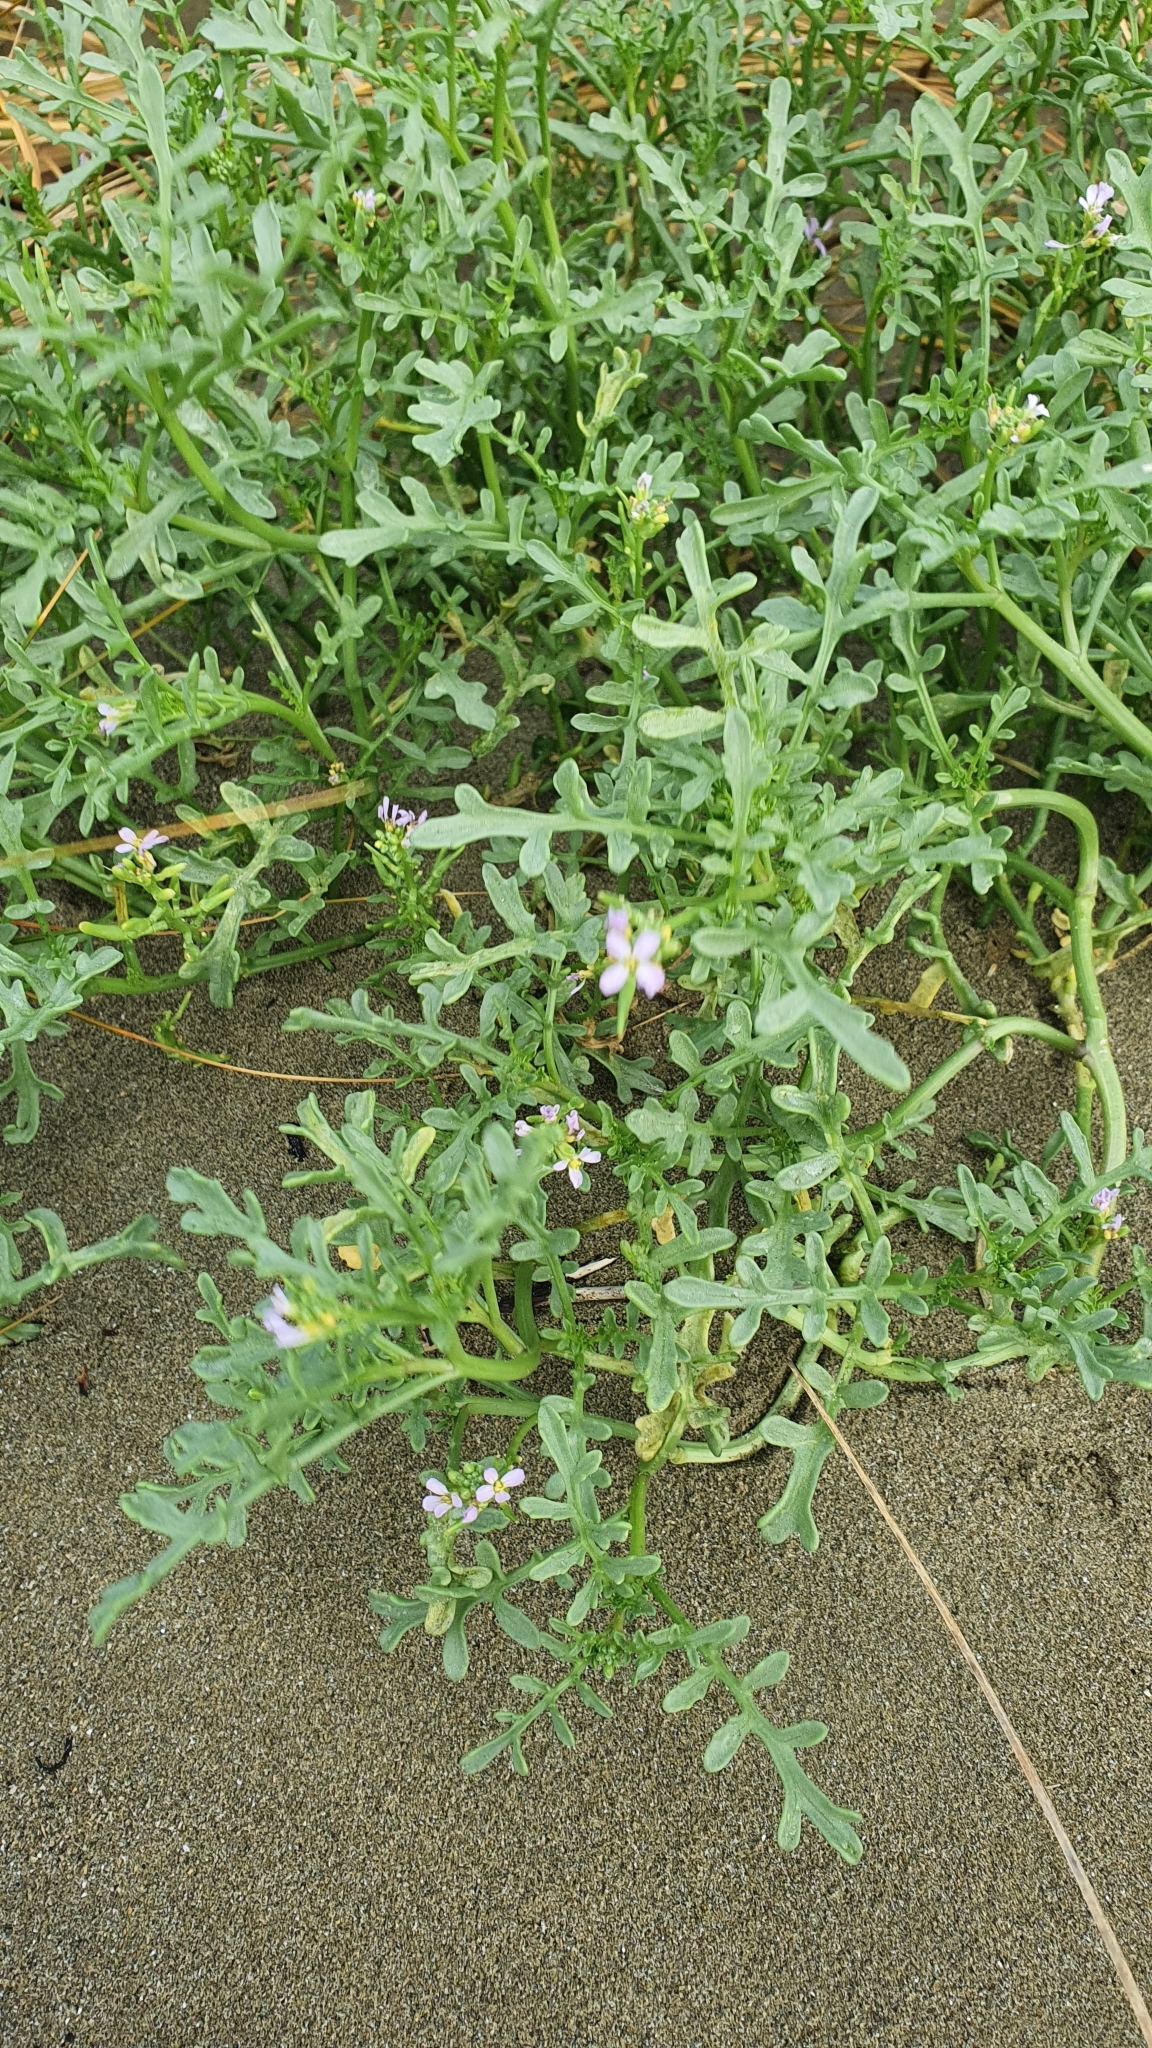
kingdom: Plantae
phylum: Tracheophyta
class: Magnoliopsida
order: Brassicales
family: Brassicaceae
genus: Cakile
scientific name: Cakile maritima
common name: Sea rocket
